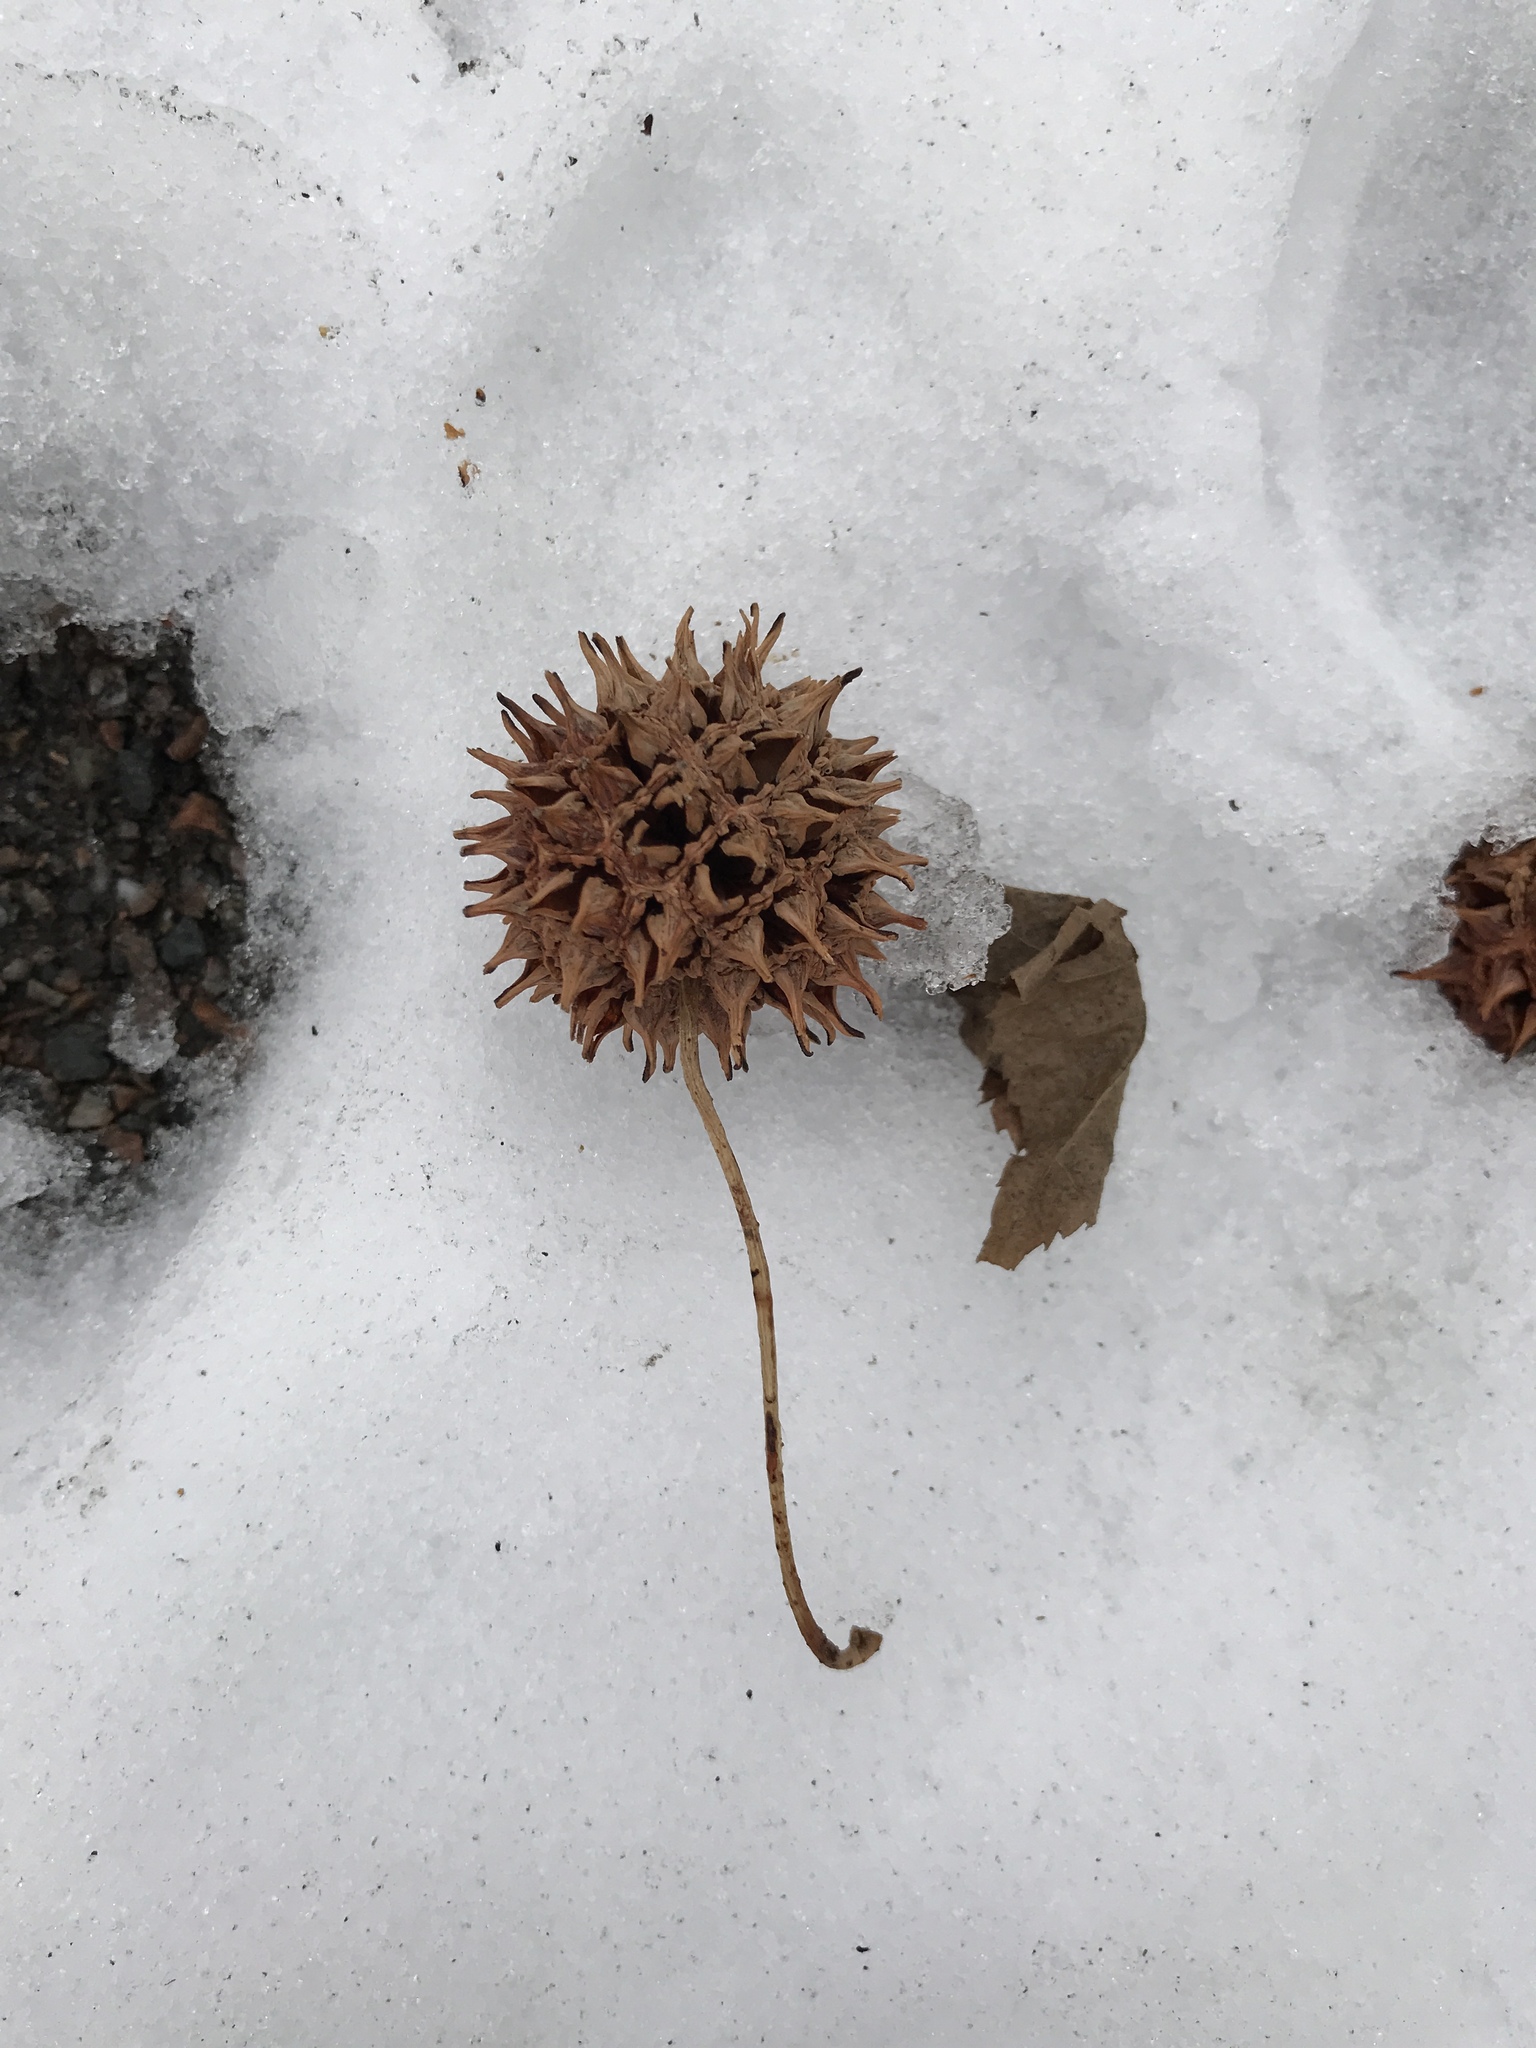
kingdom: Plantae
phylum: Tracheophyta
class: Magnoliopsida
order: Saxifragales
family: Altingiaceae
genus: Liquidambar
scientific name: Liquidambar styraciflua
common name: Sweet gum
